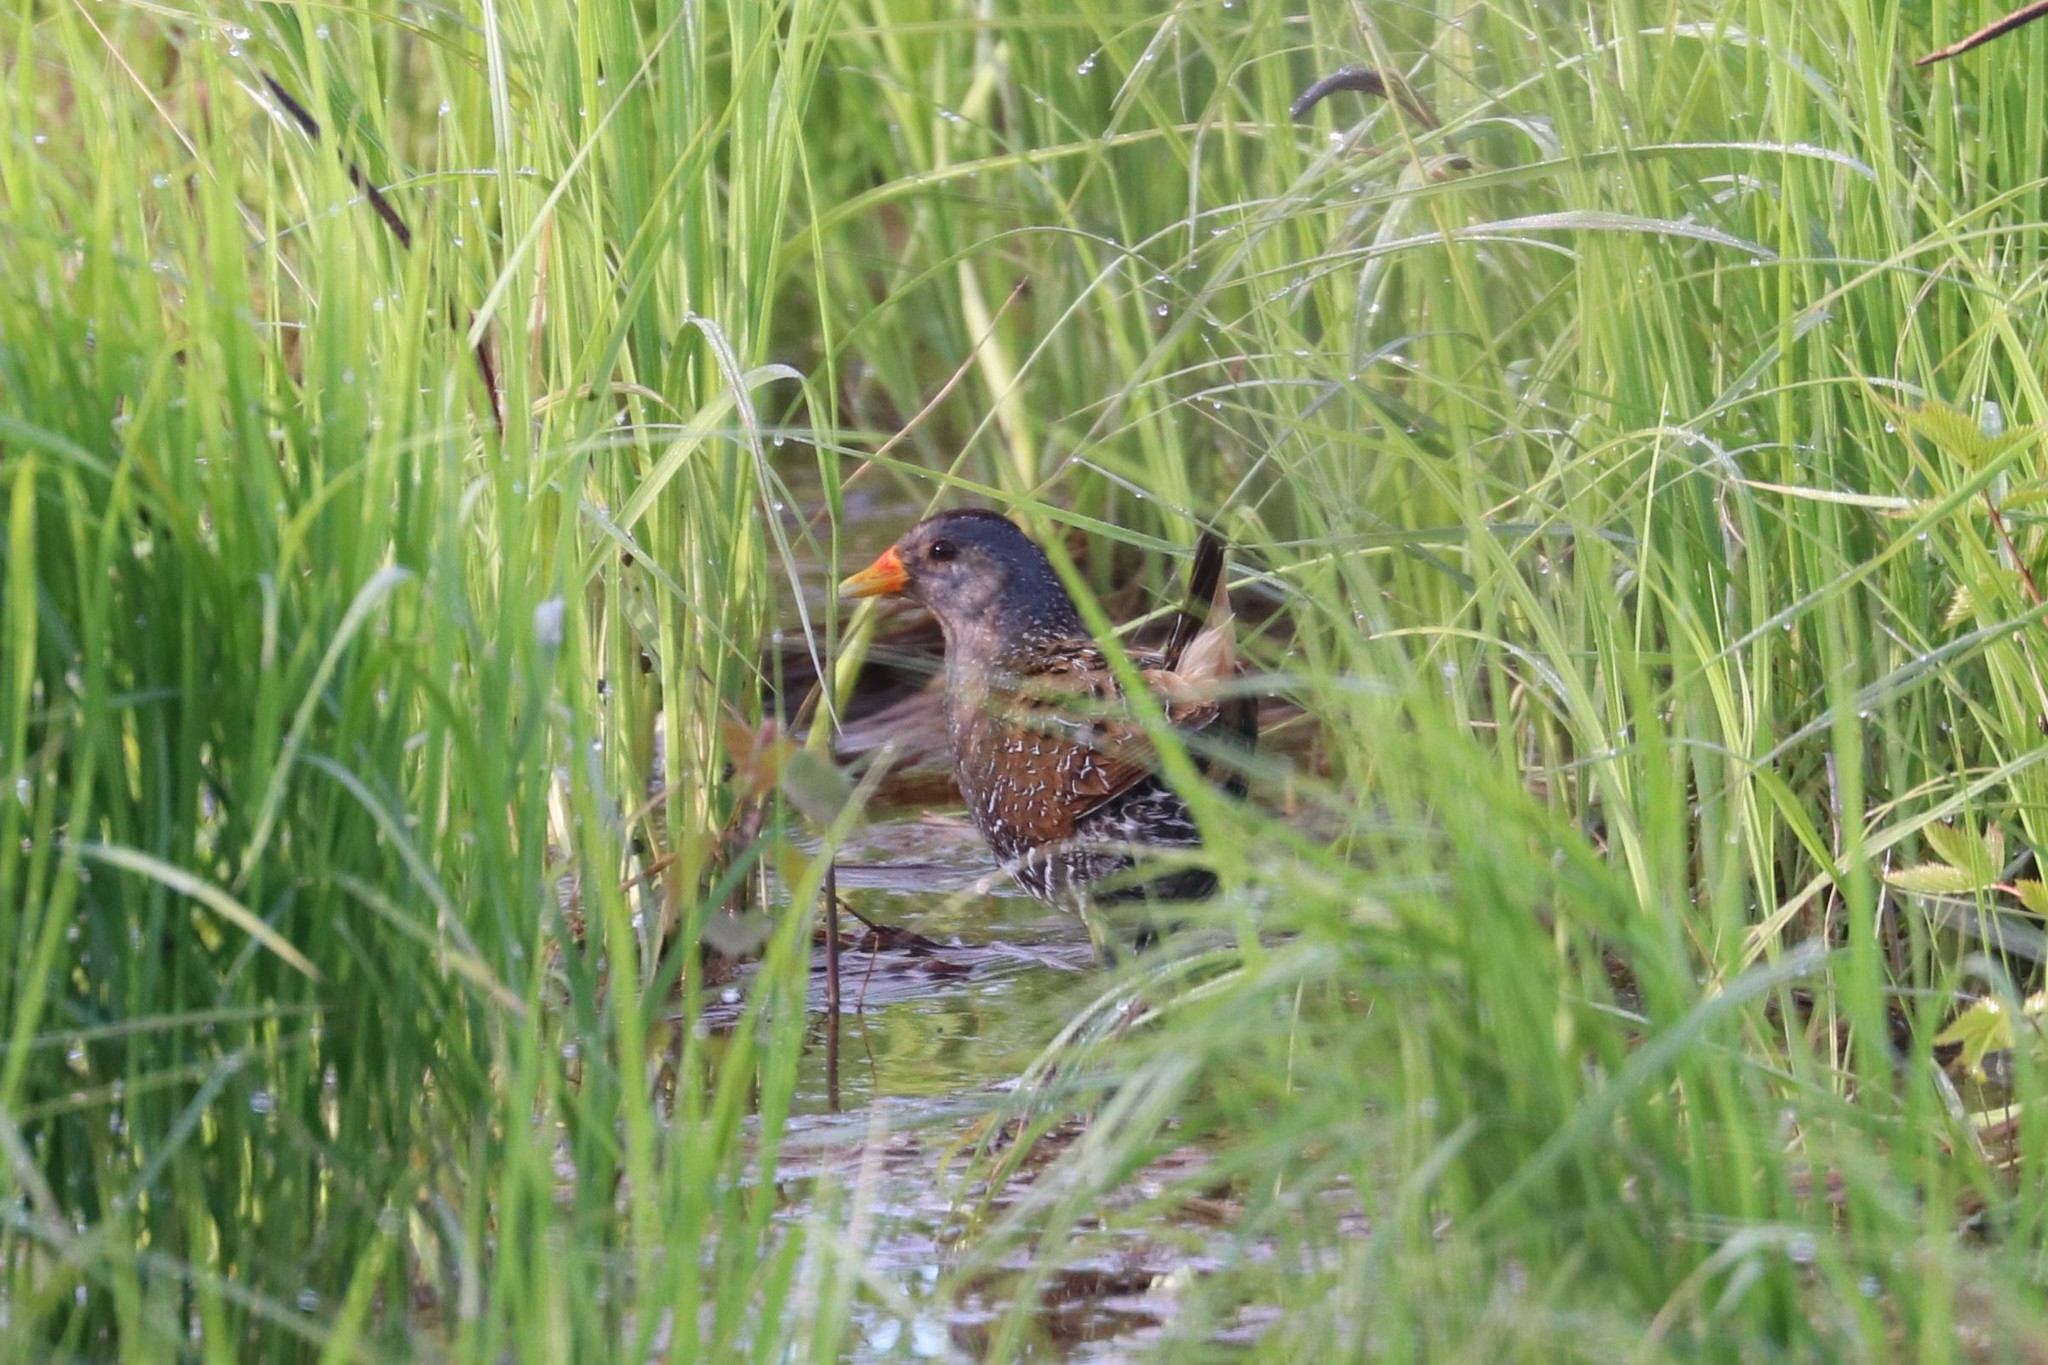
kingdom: Animalia
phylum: Chordata
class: Aves
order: Gruiformes
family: Rallidae
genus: Porzana
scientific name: Porzana porzana
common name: Spotted crake
